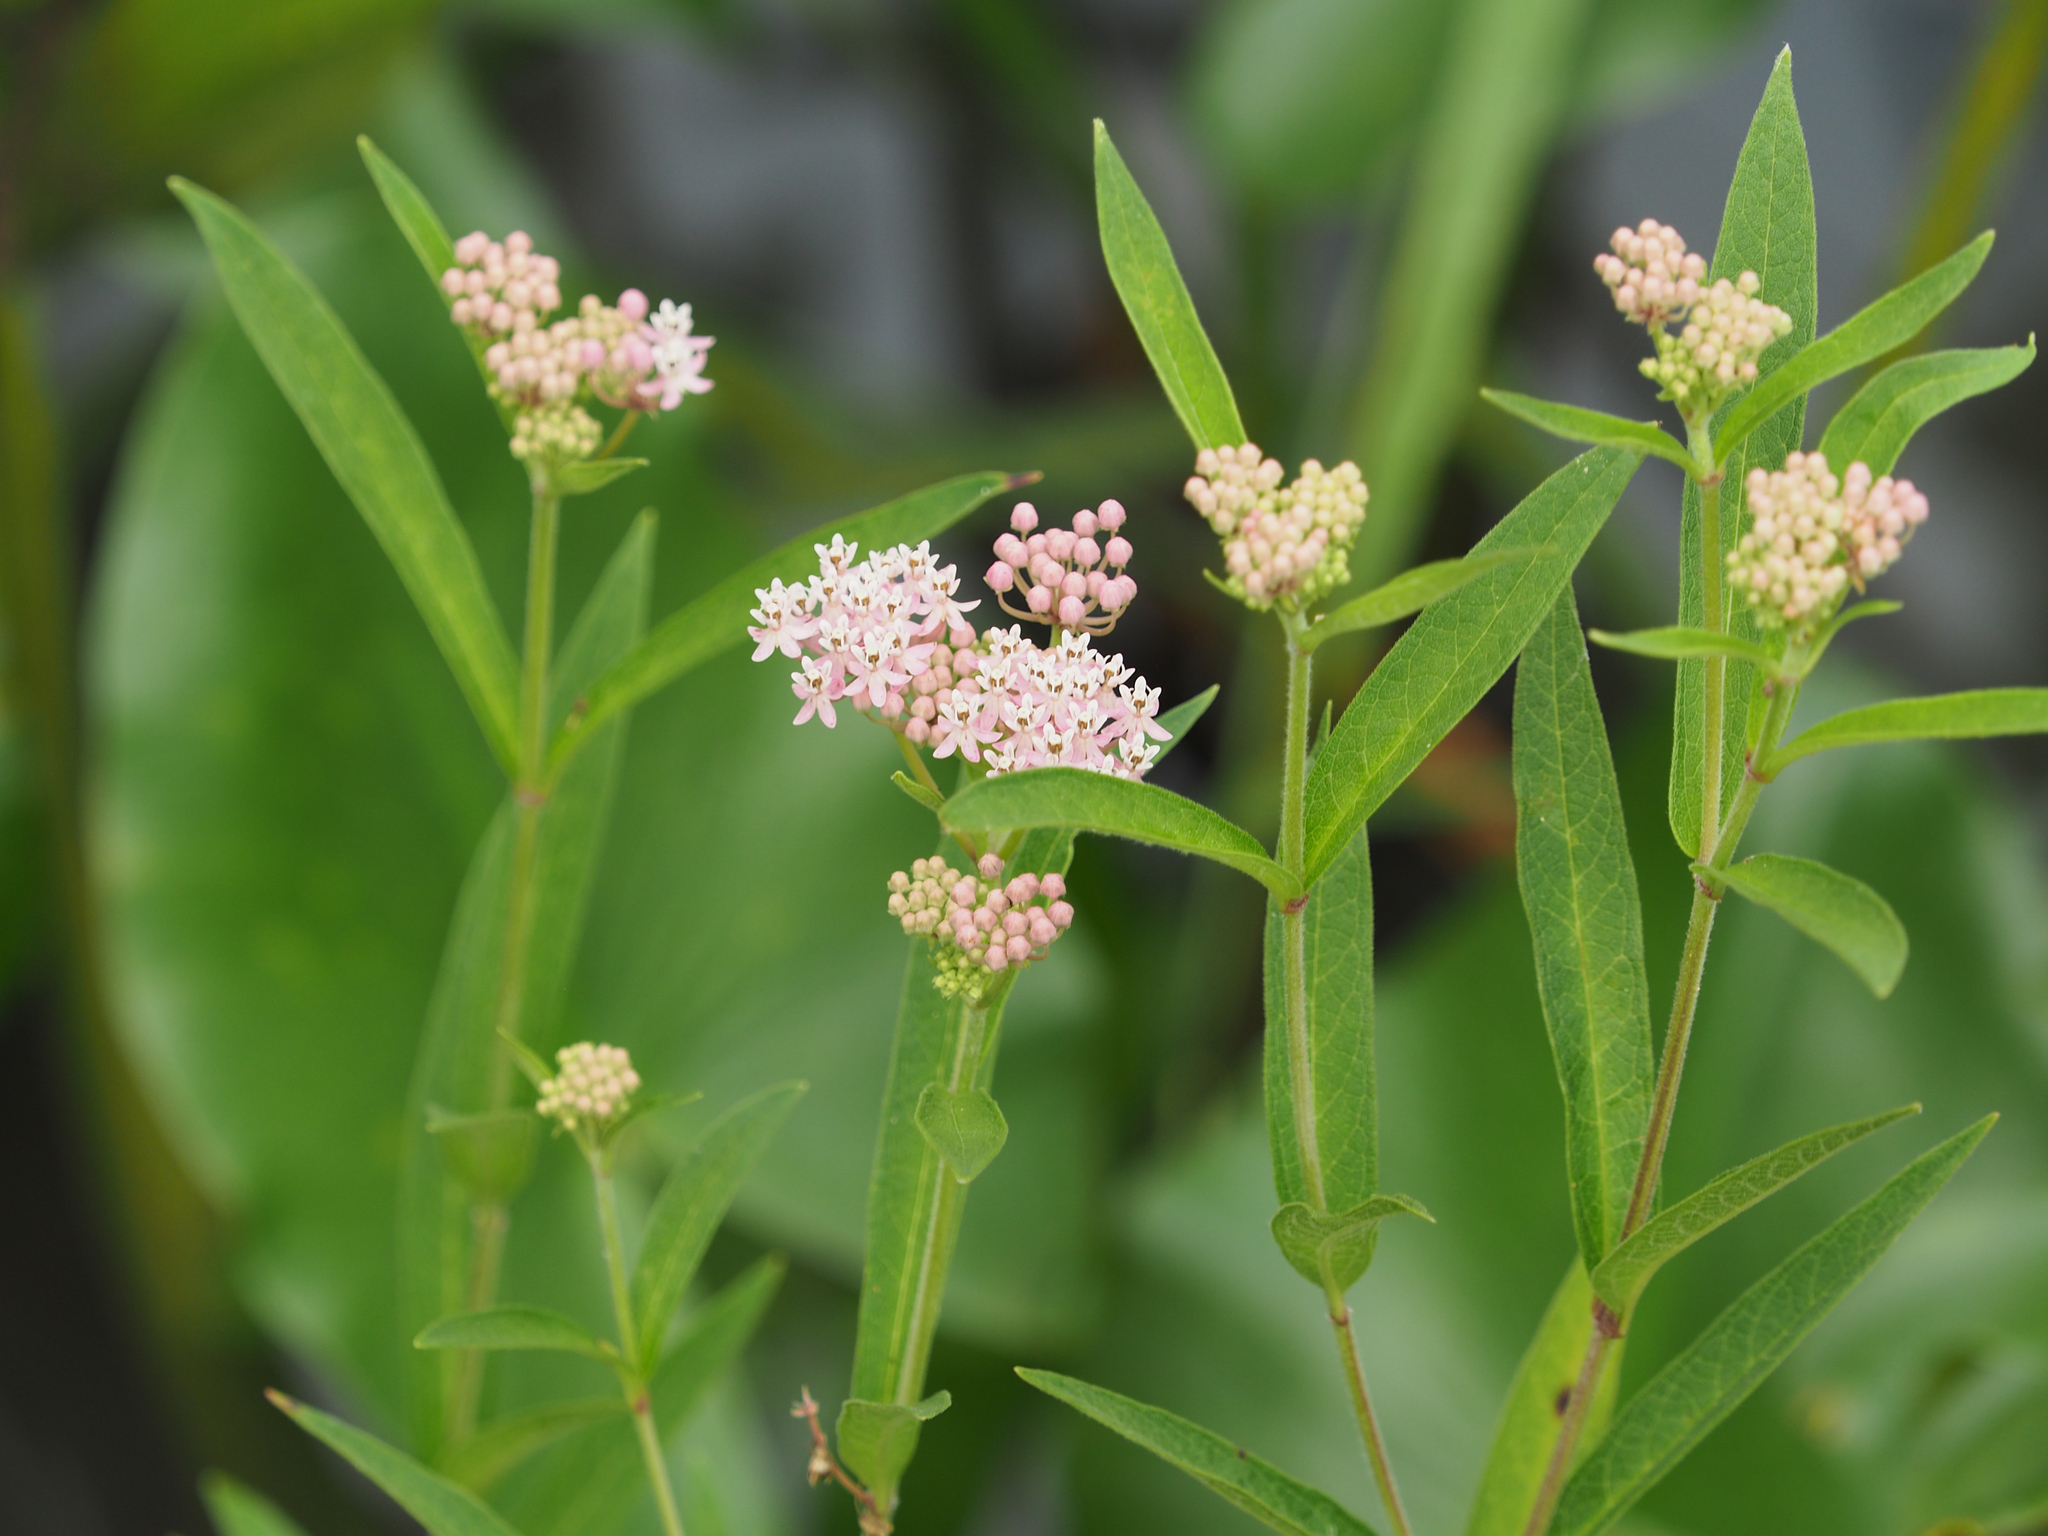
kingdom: Plantae
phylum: Tracheophyta
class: Magnoliopsida
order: Gentianales
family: Apocynaceae
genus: Asclepias
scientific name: Asclepias incarnata
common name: Swamp milkweed
